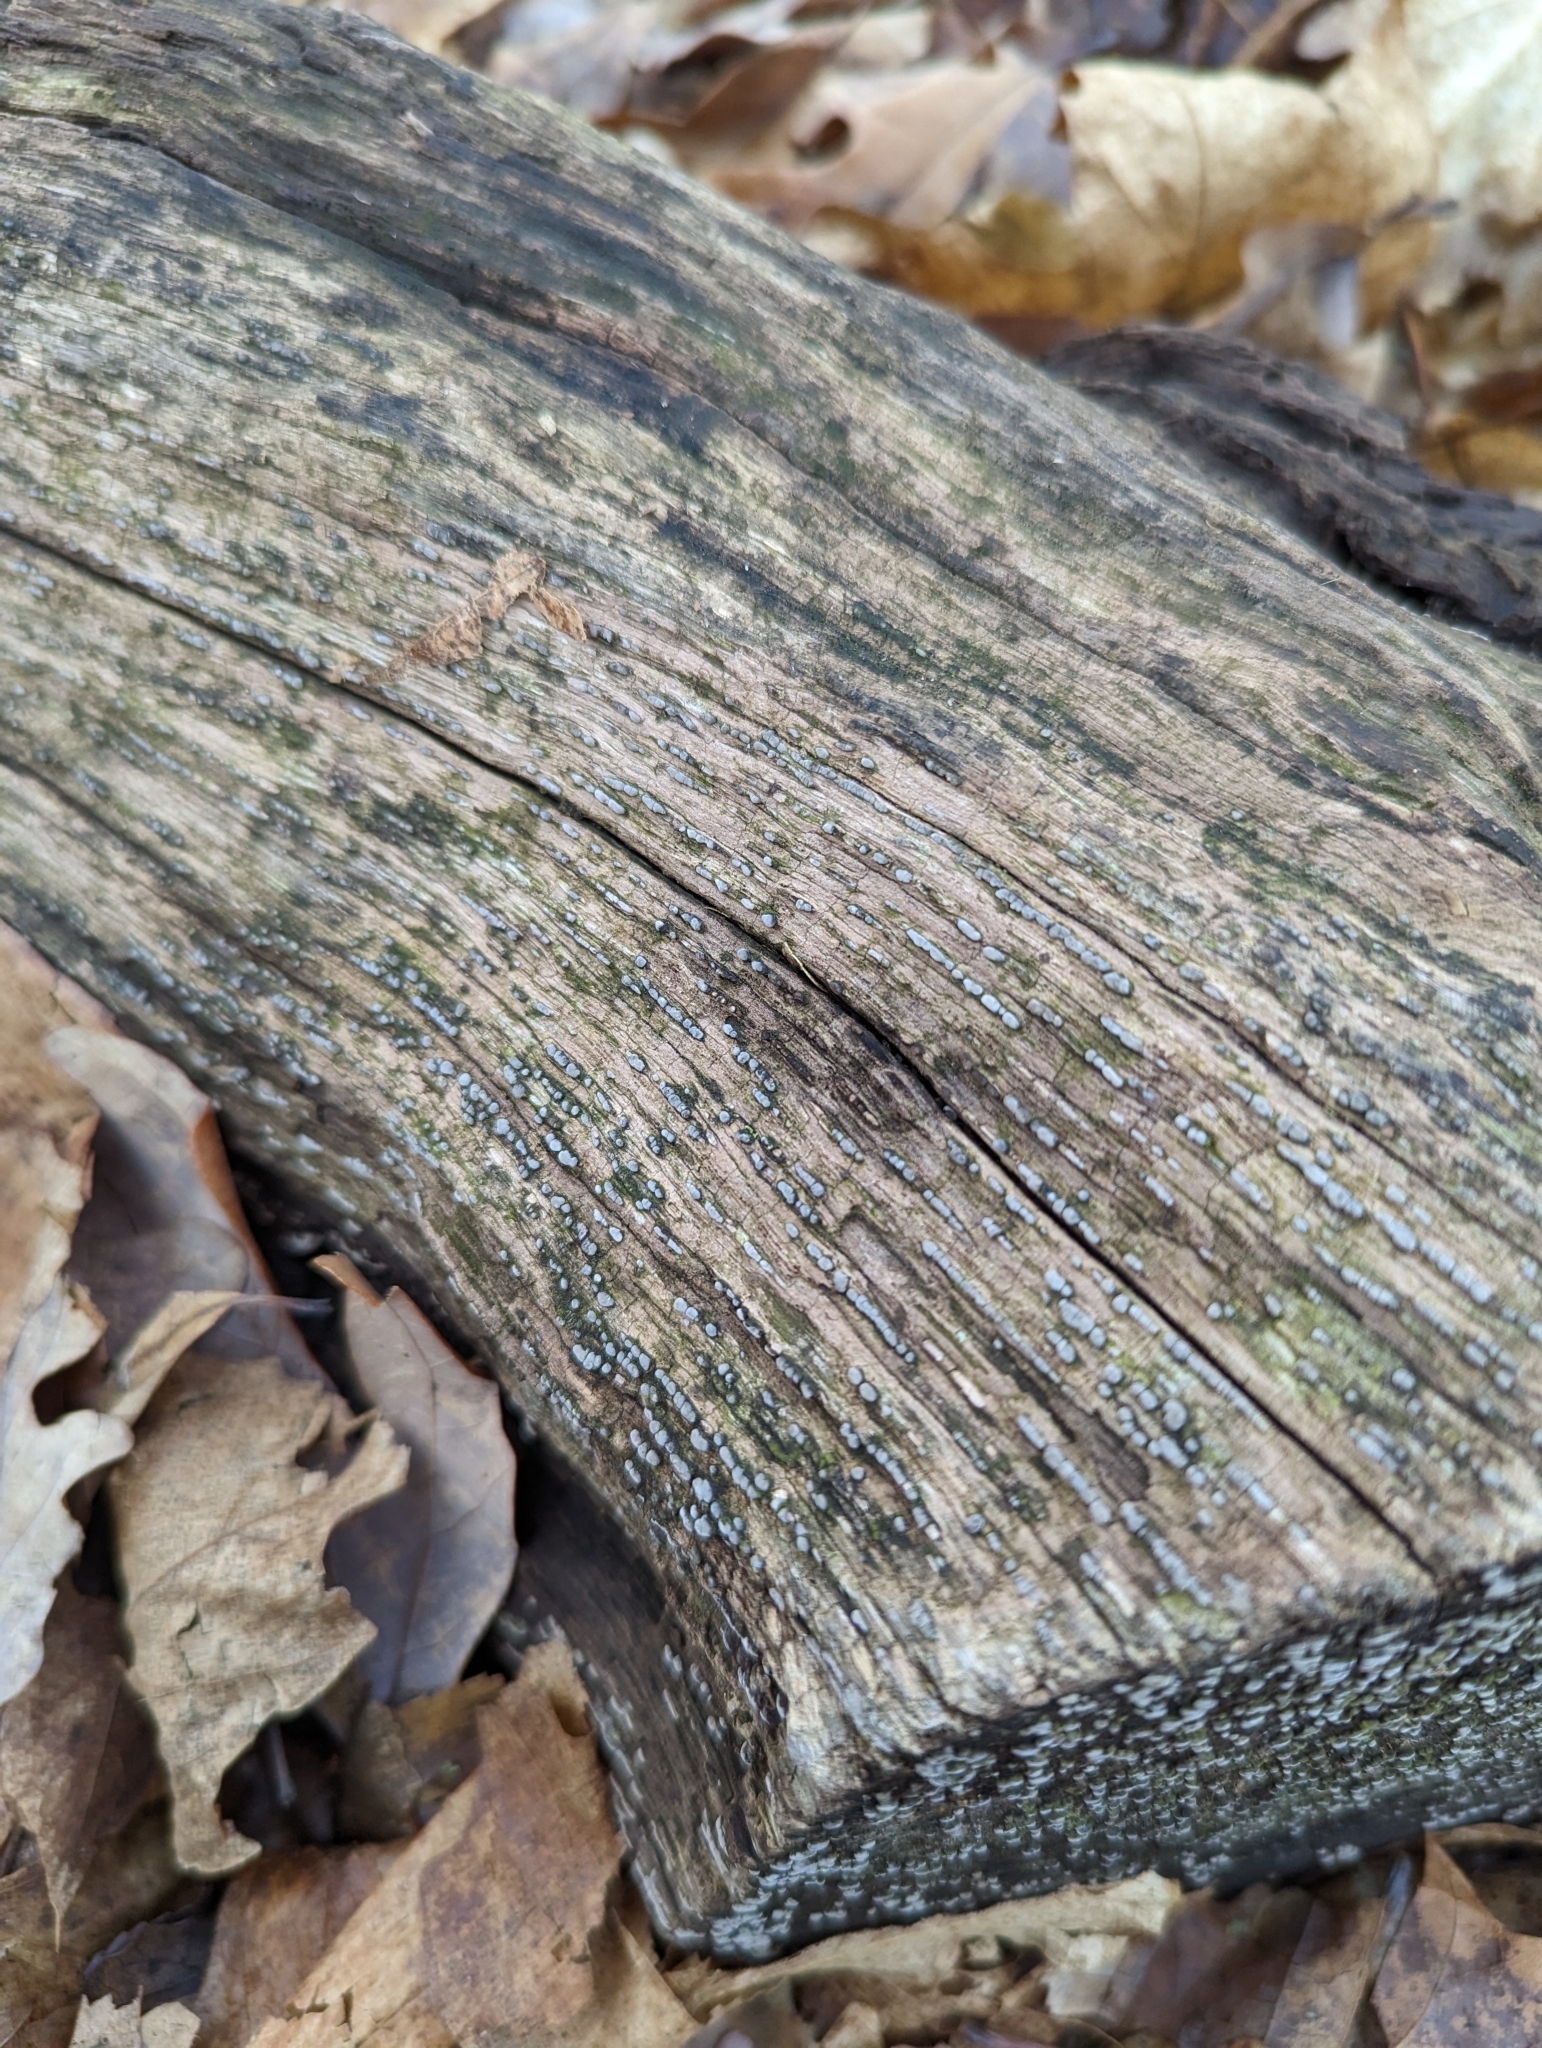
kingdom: Fungi
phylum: Basidiomycota
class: Agaricomycetes
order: Russulales
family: Stereaceae
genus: Xylobolus
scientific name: Xylobolus frustulatus
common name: Ceramic parchment
